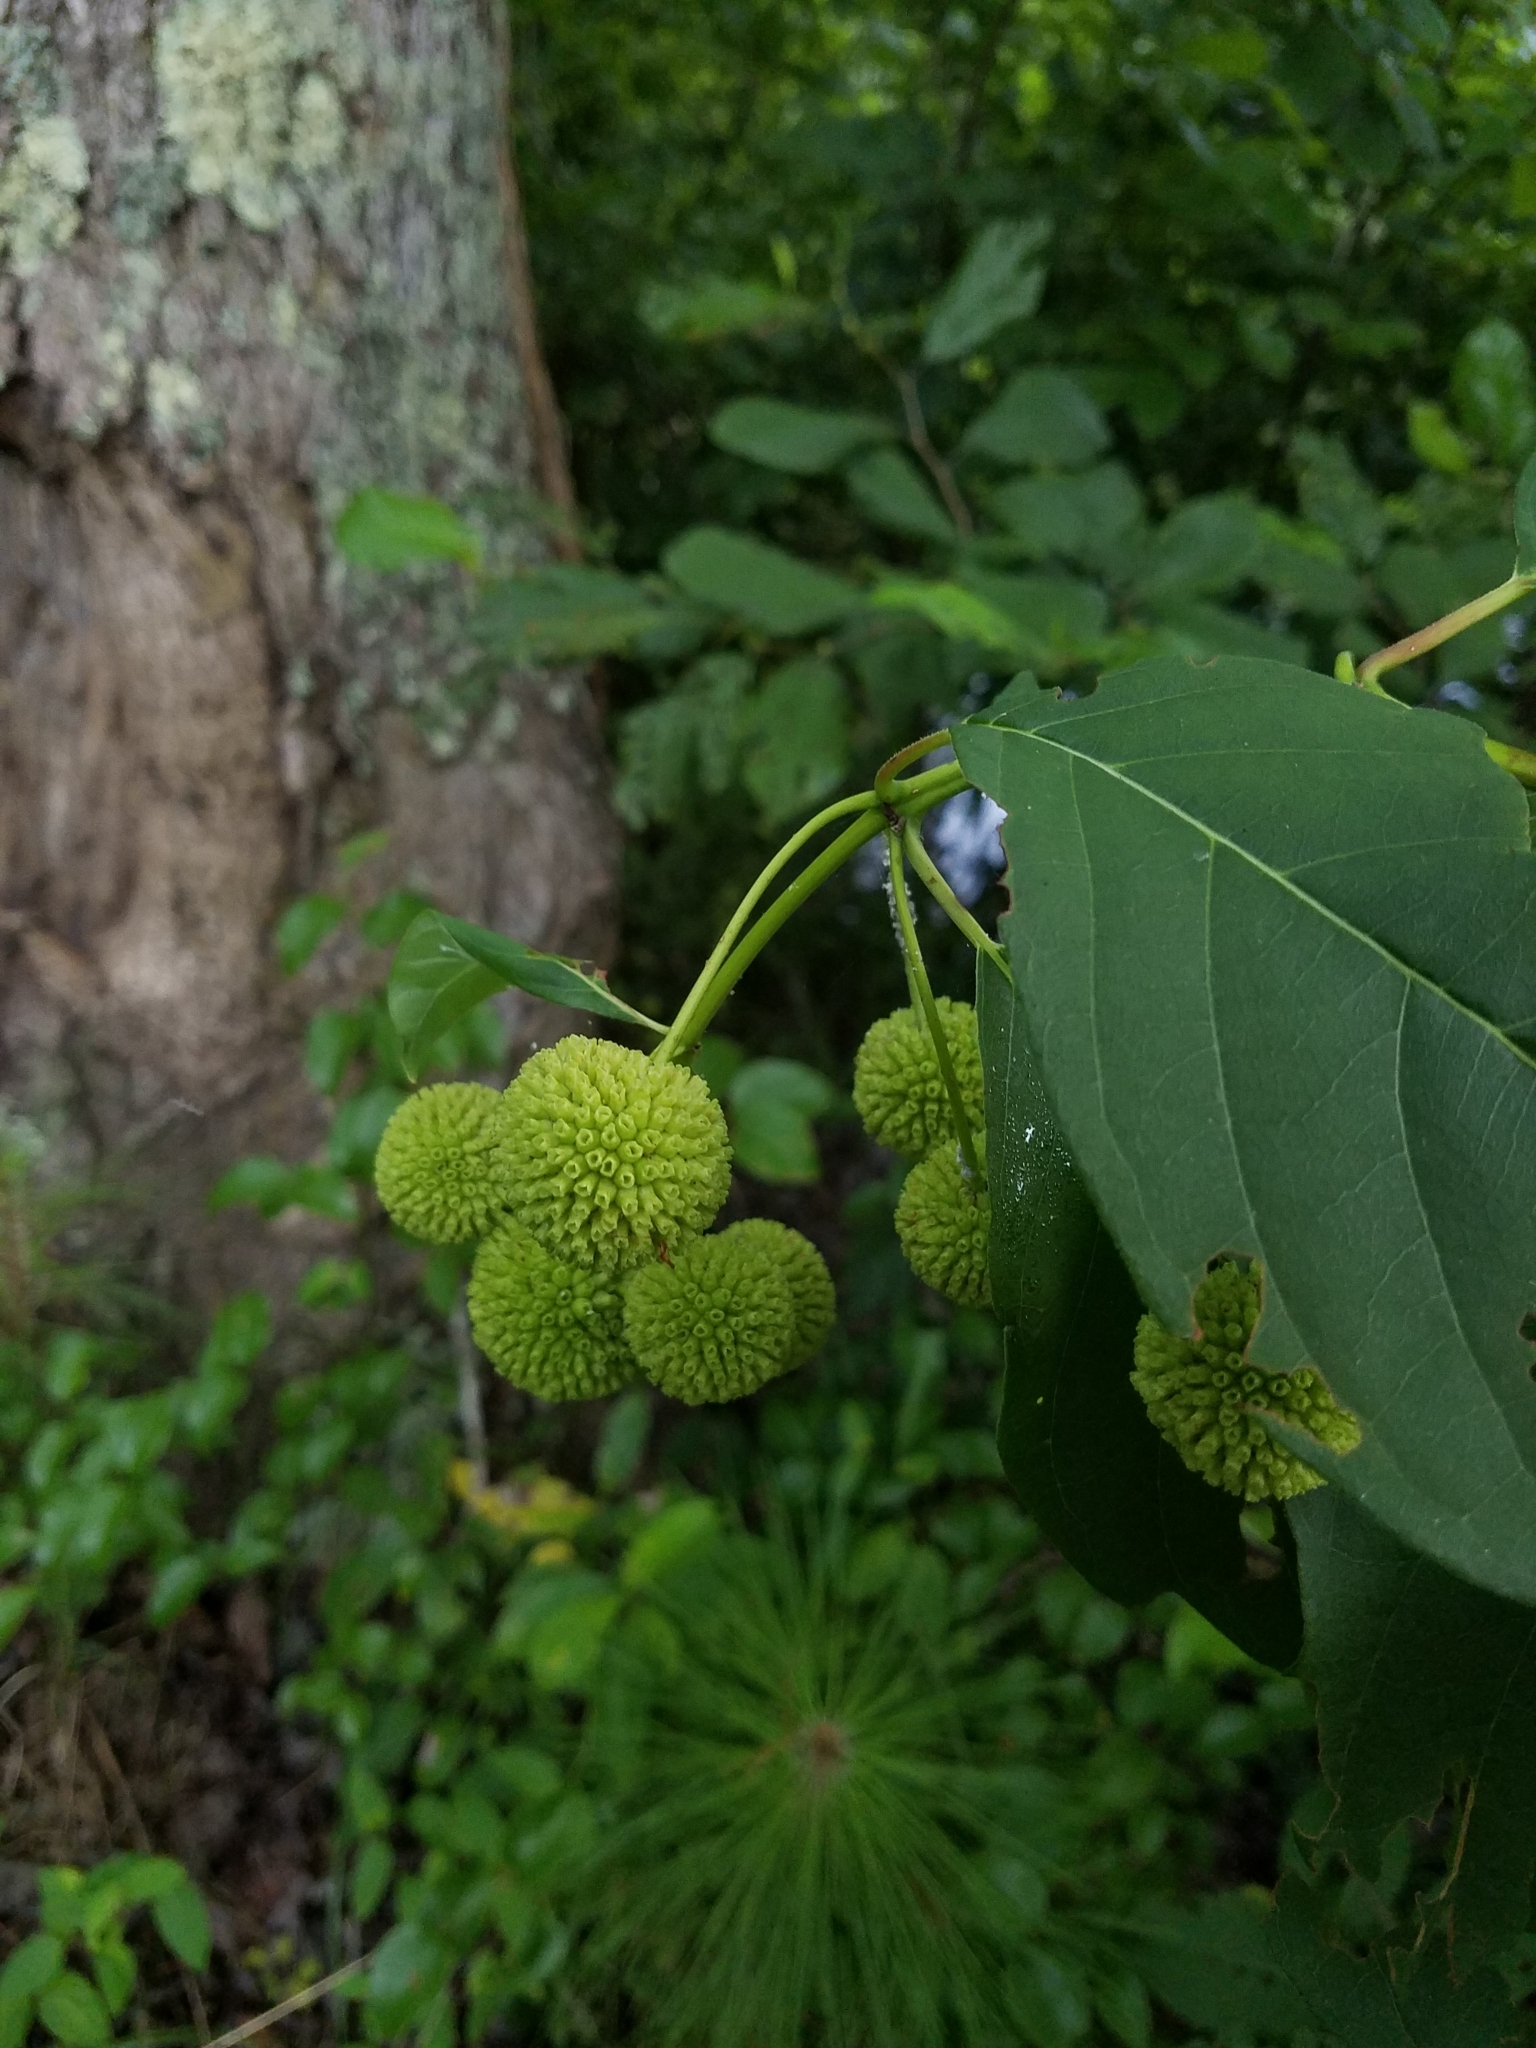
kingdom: Plantae
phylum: Tracheophyta
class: Magnoliopsida
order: Gentianales
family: Rubiaceae
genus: Cephalanthus
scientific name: Cephalanthus occidentalis
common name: Button-willow
